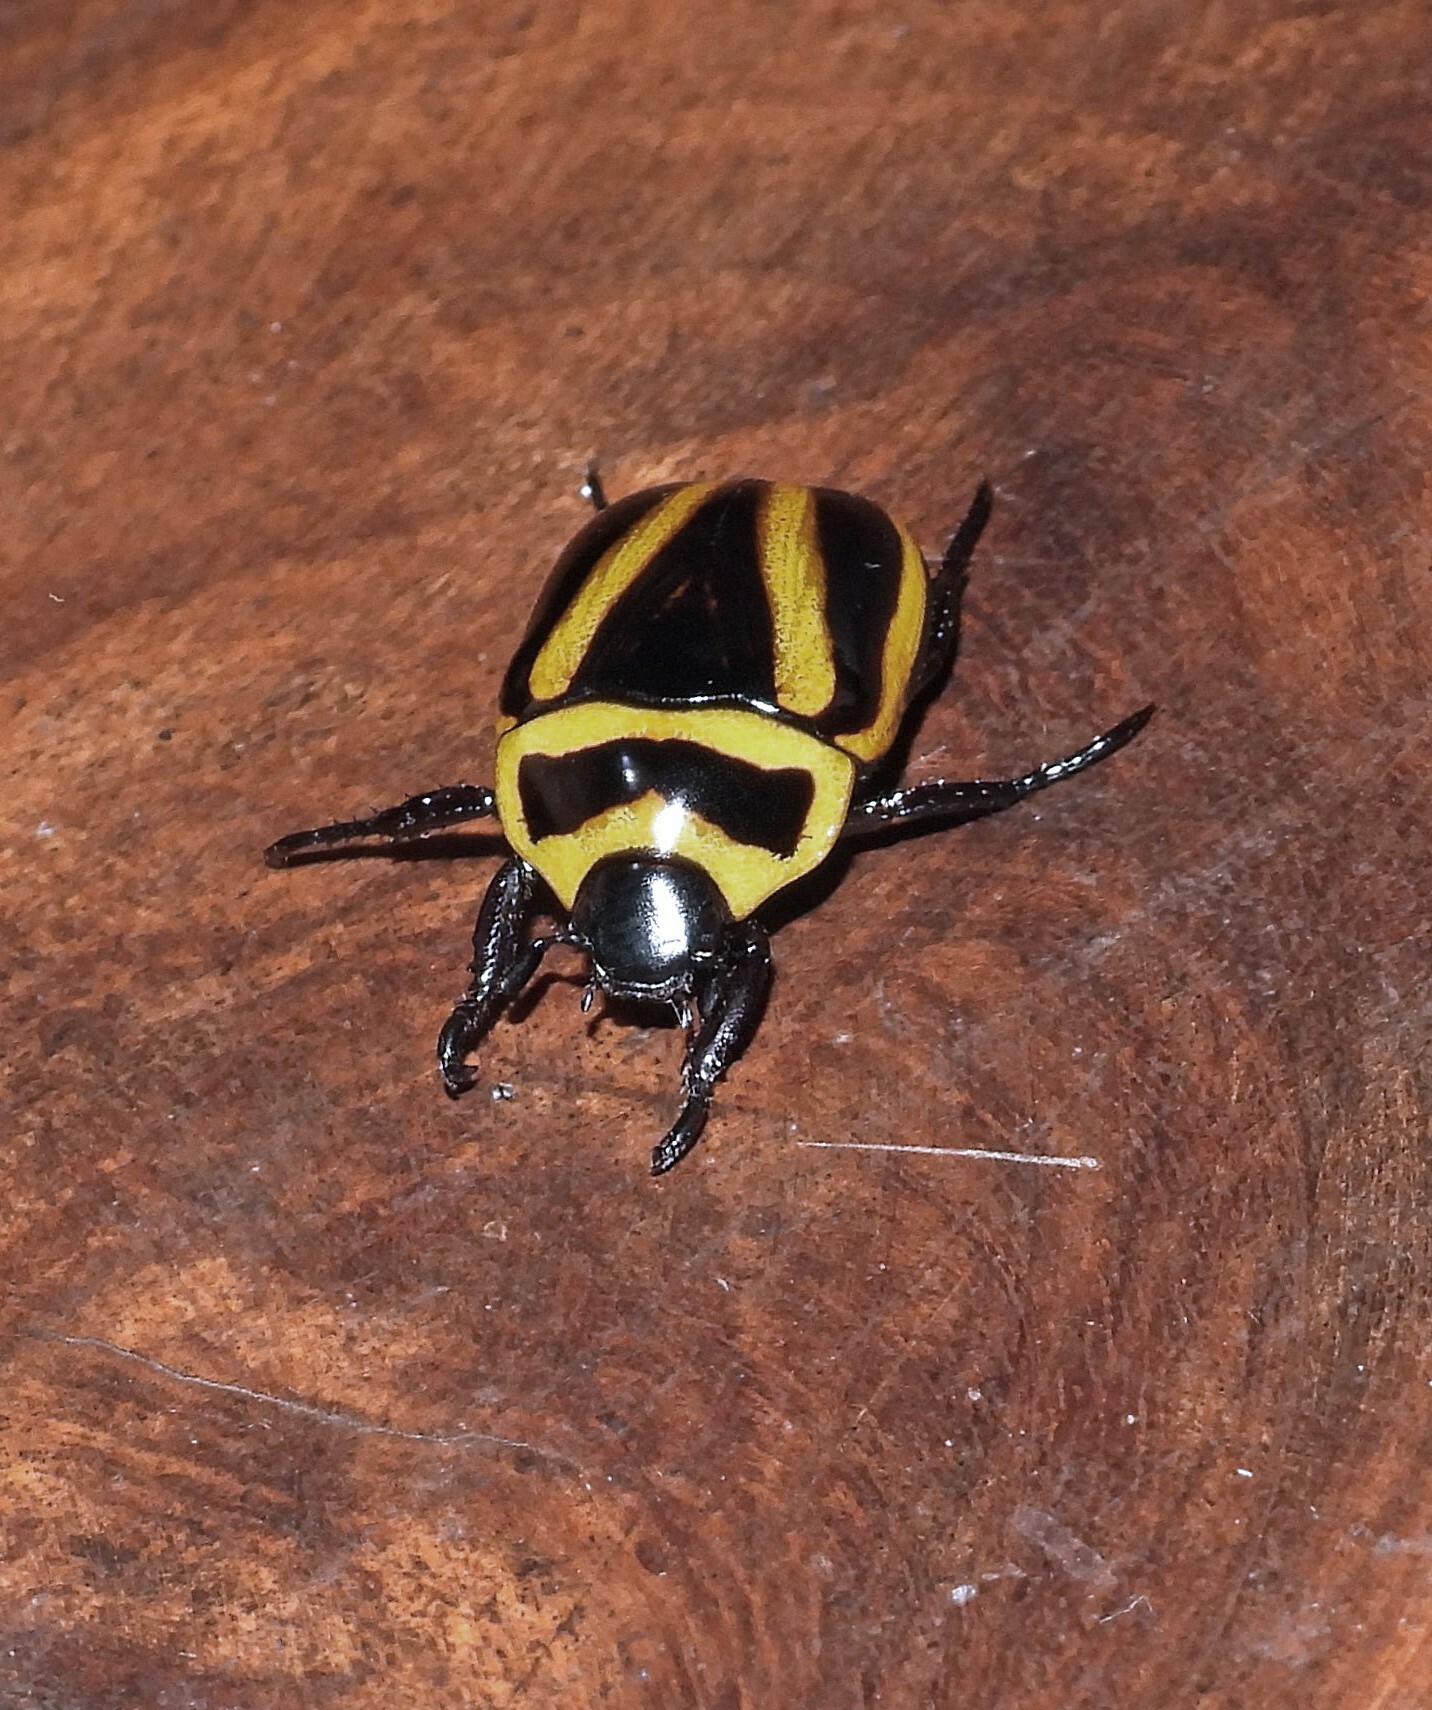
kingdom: Animalia
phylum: Arthropoda
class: Insecta
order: Coleoptera
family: Scarabaeidae
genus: Macraspis
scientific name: Macraspis cincta
